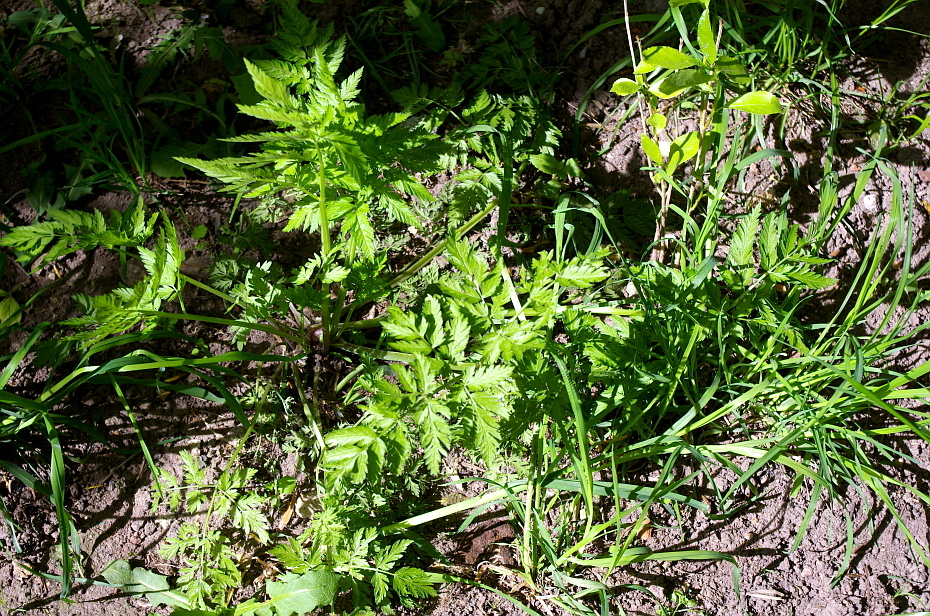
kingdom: Plantae
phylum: Tracheophyta
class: Magnoliopsida
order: Apiales
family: Apiaceae
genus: Anthriscus
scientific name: Anthriscus sylvestris
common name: Cow parsley
